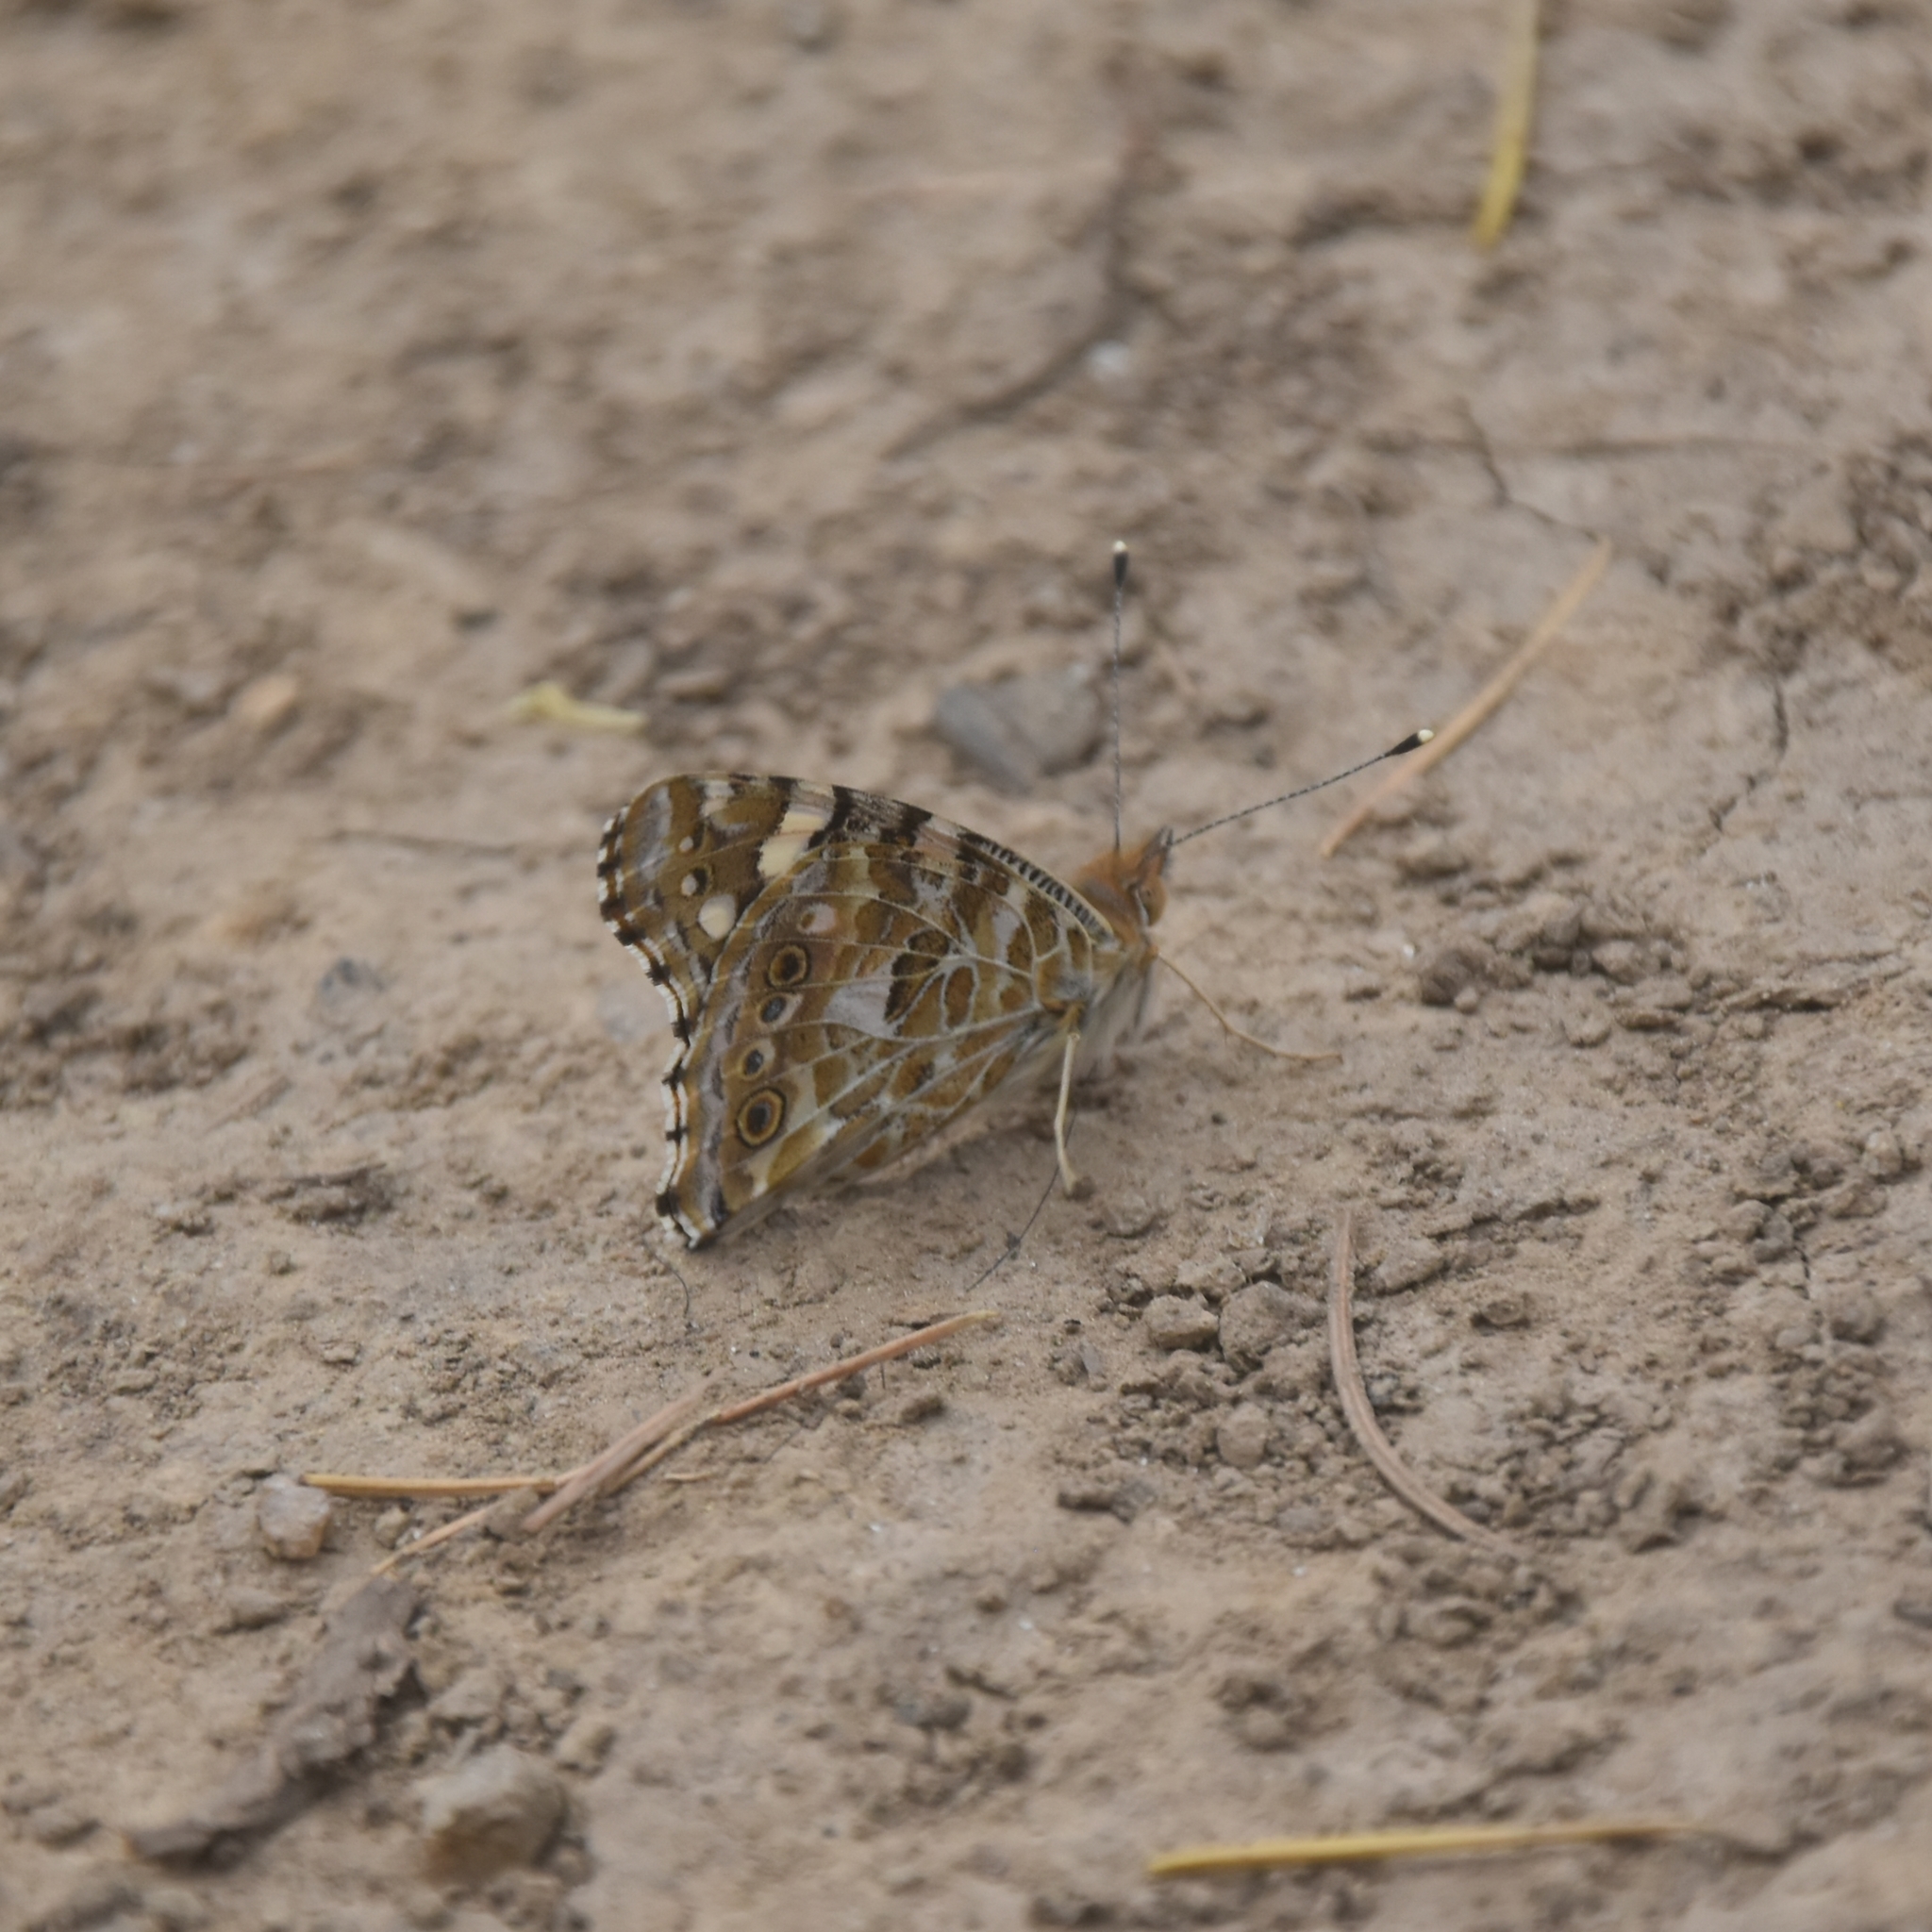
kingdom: Animalia
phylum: Arthropoda
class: Insecta
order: Lepidoptera
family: Nymphalidae
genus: Vanessa
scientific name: Vanessa cardui
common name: Painted lady
